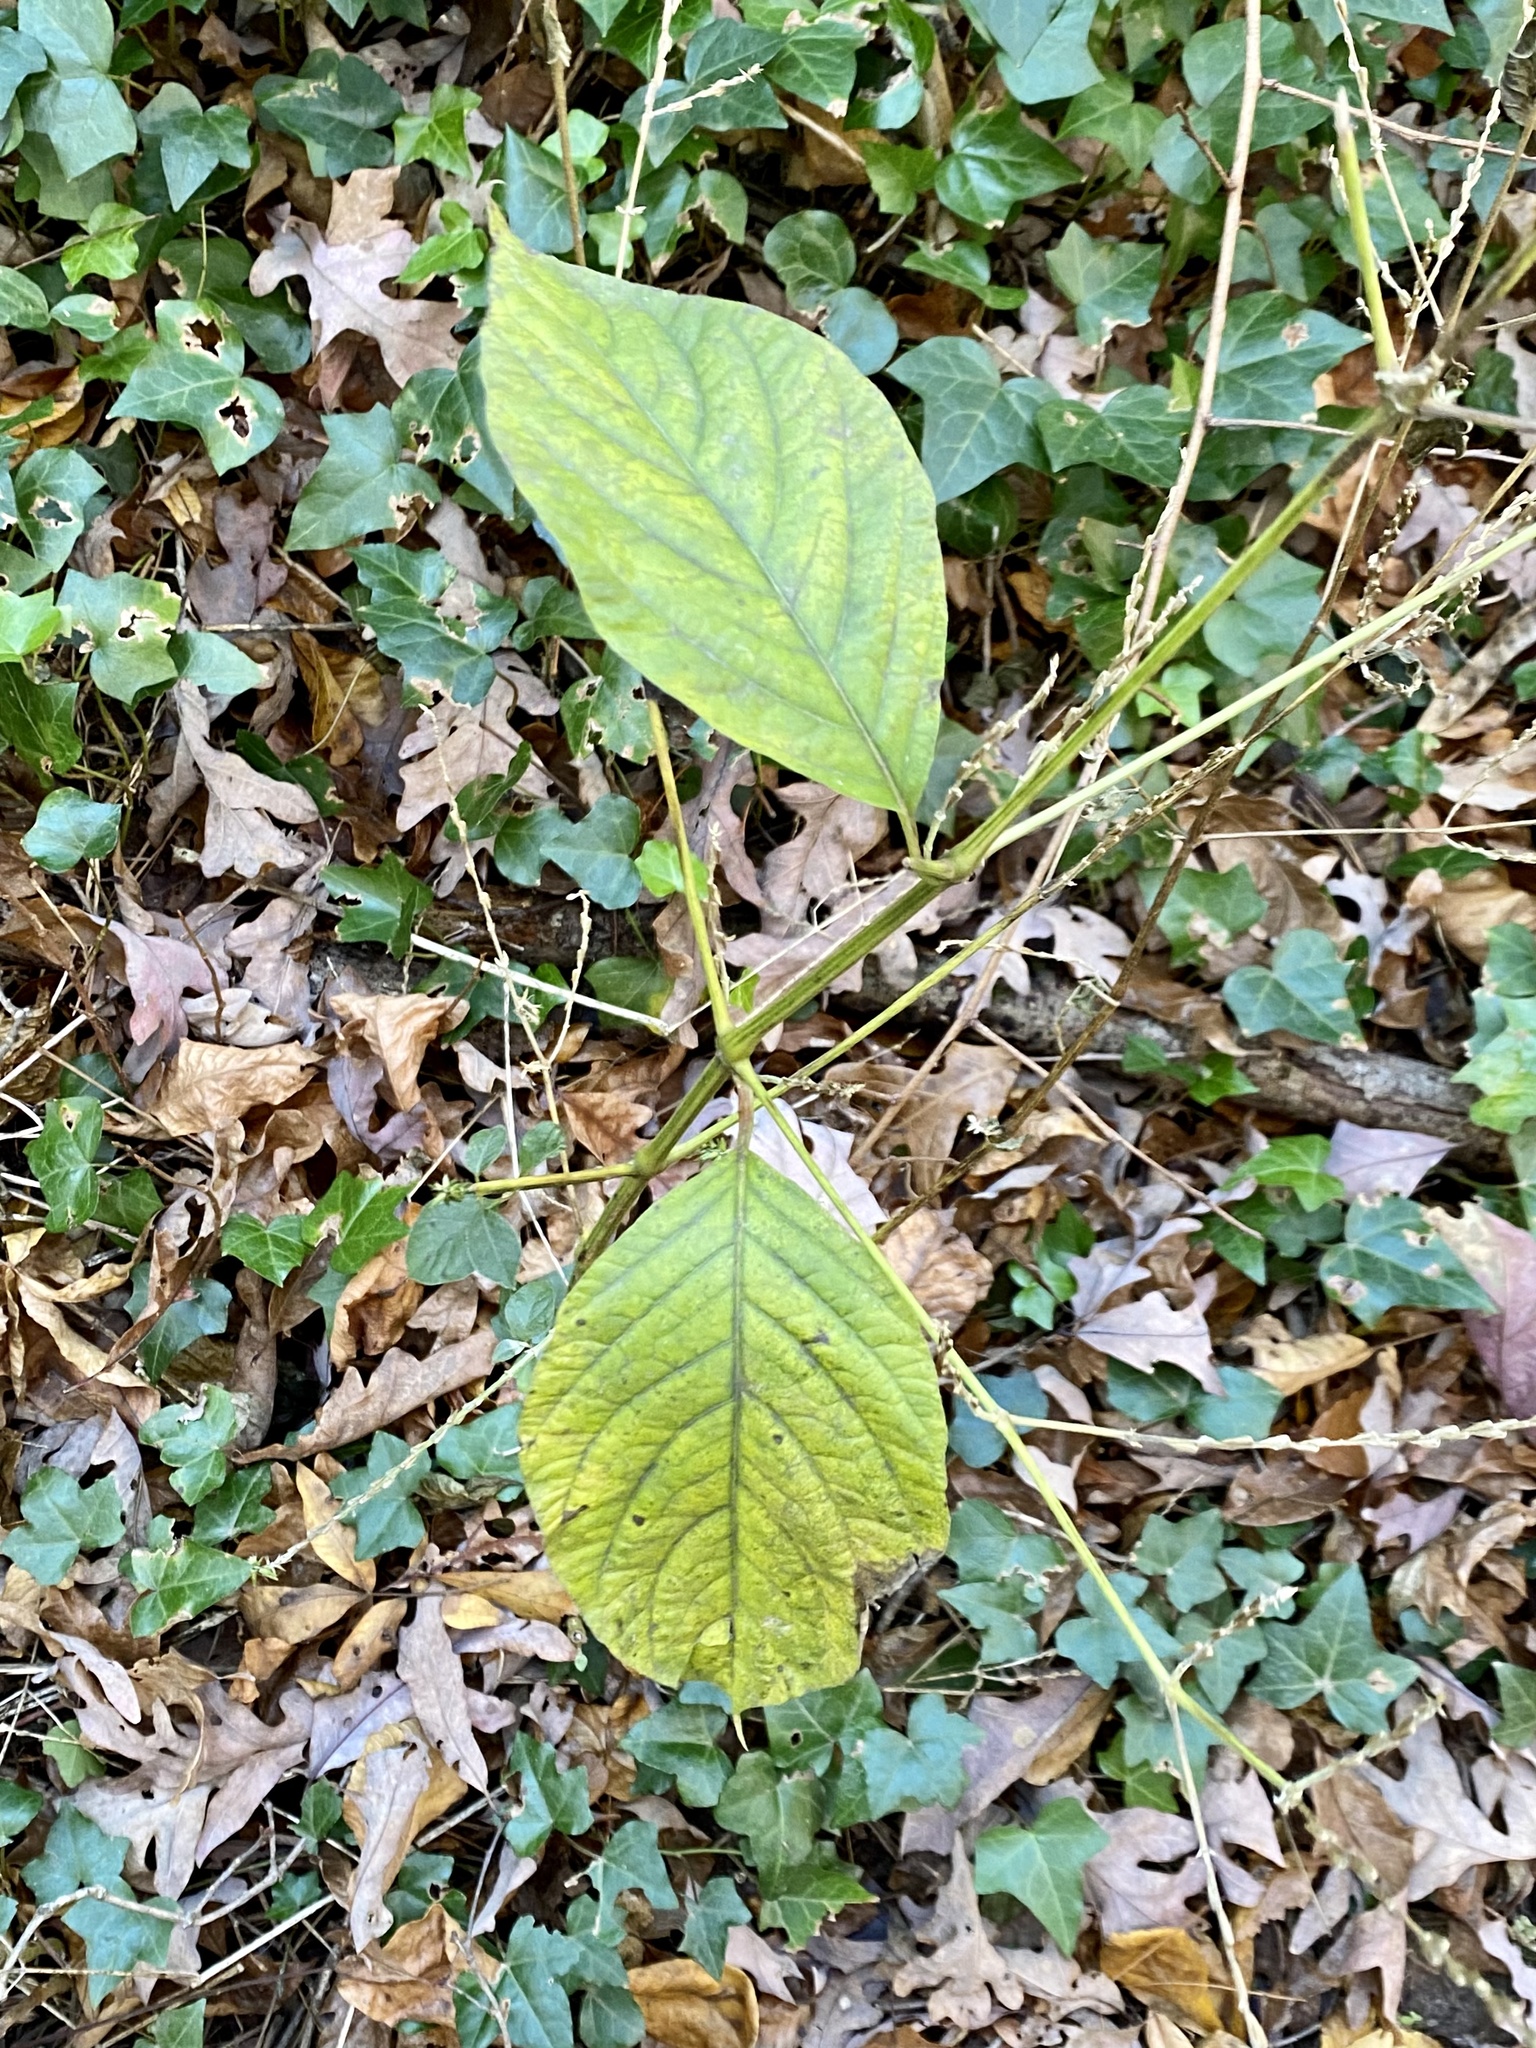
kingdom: Plantae
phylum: Tracheophyta
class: Magnoliopsida
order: Caryophyllales
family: Amaranthaceae
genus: Achyranthes
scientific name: Achyranthes bidentata
